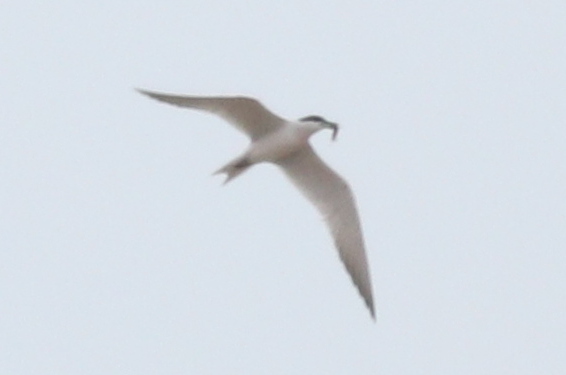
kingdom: Animalia
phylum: Chordata
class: Aves
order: Charadriiformes
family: Laridae
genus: Gelochelidon
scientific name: Gelochelidon nilotica
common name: Gull-billed tern
